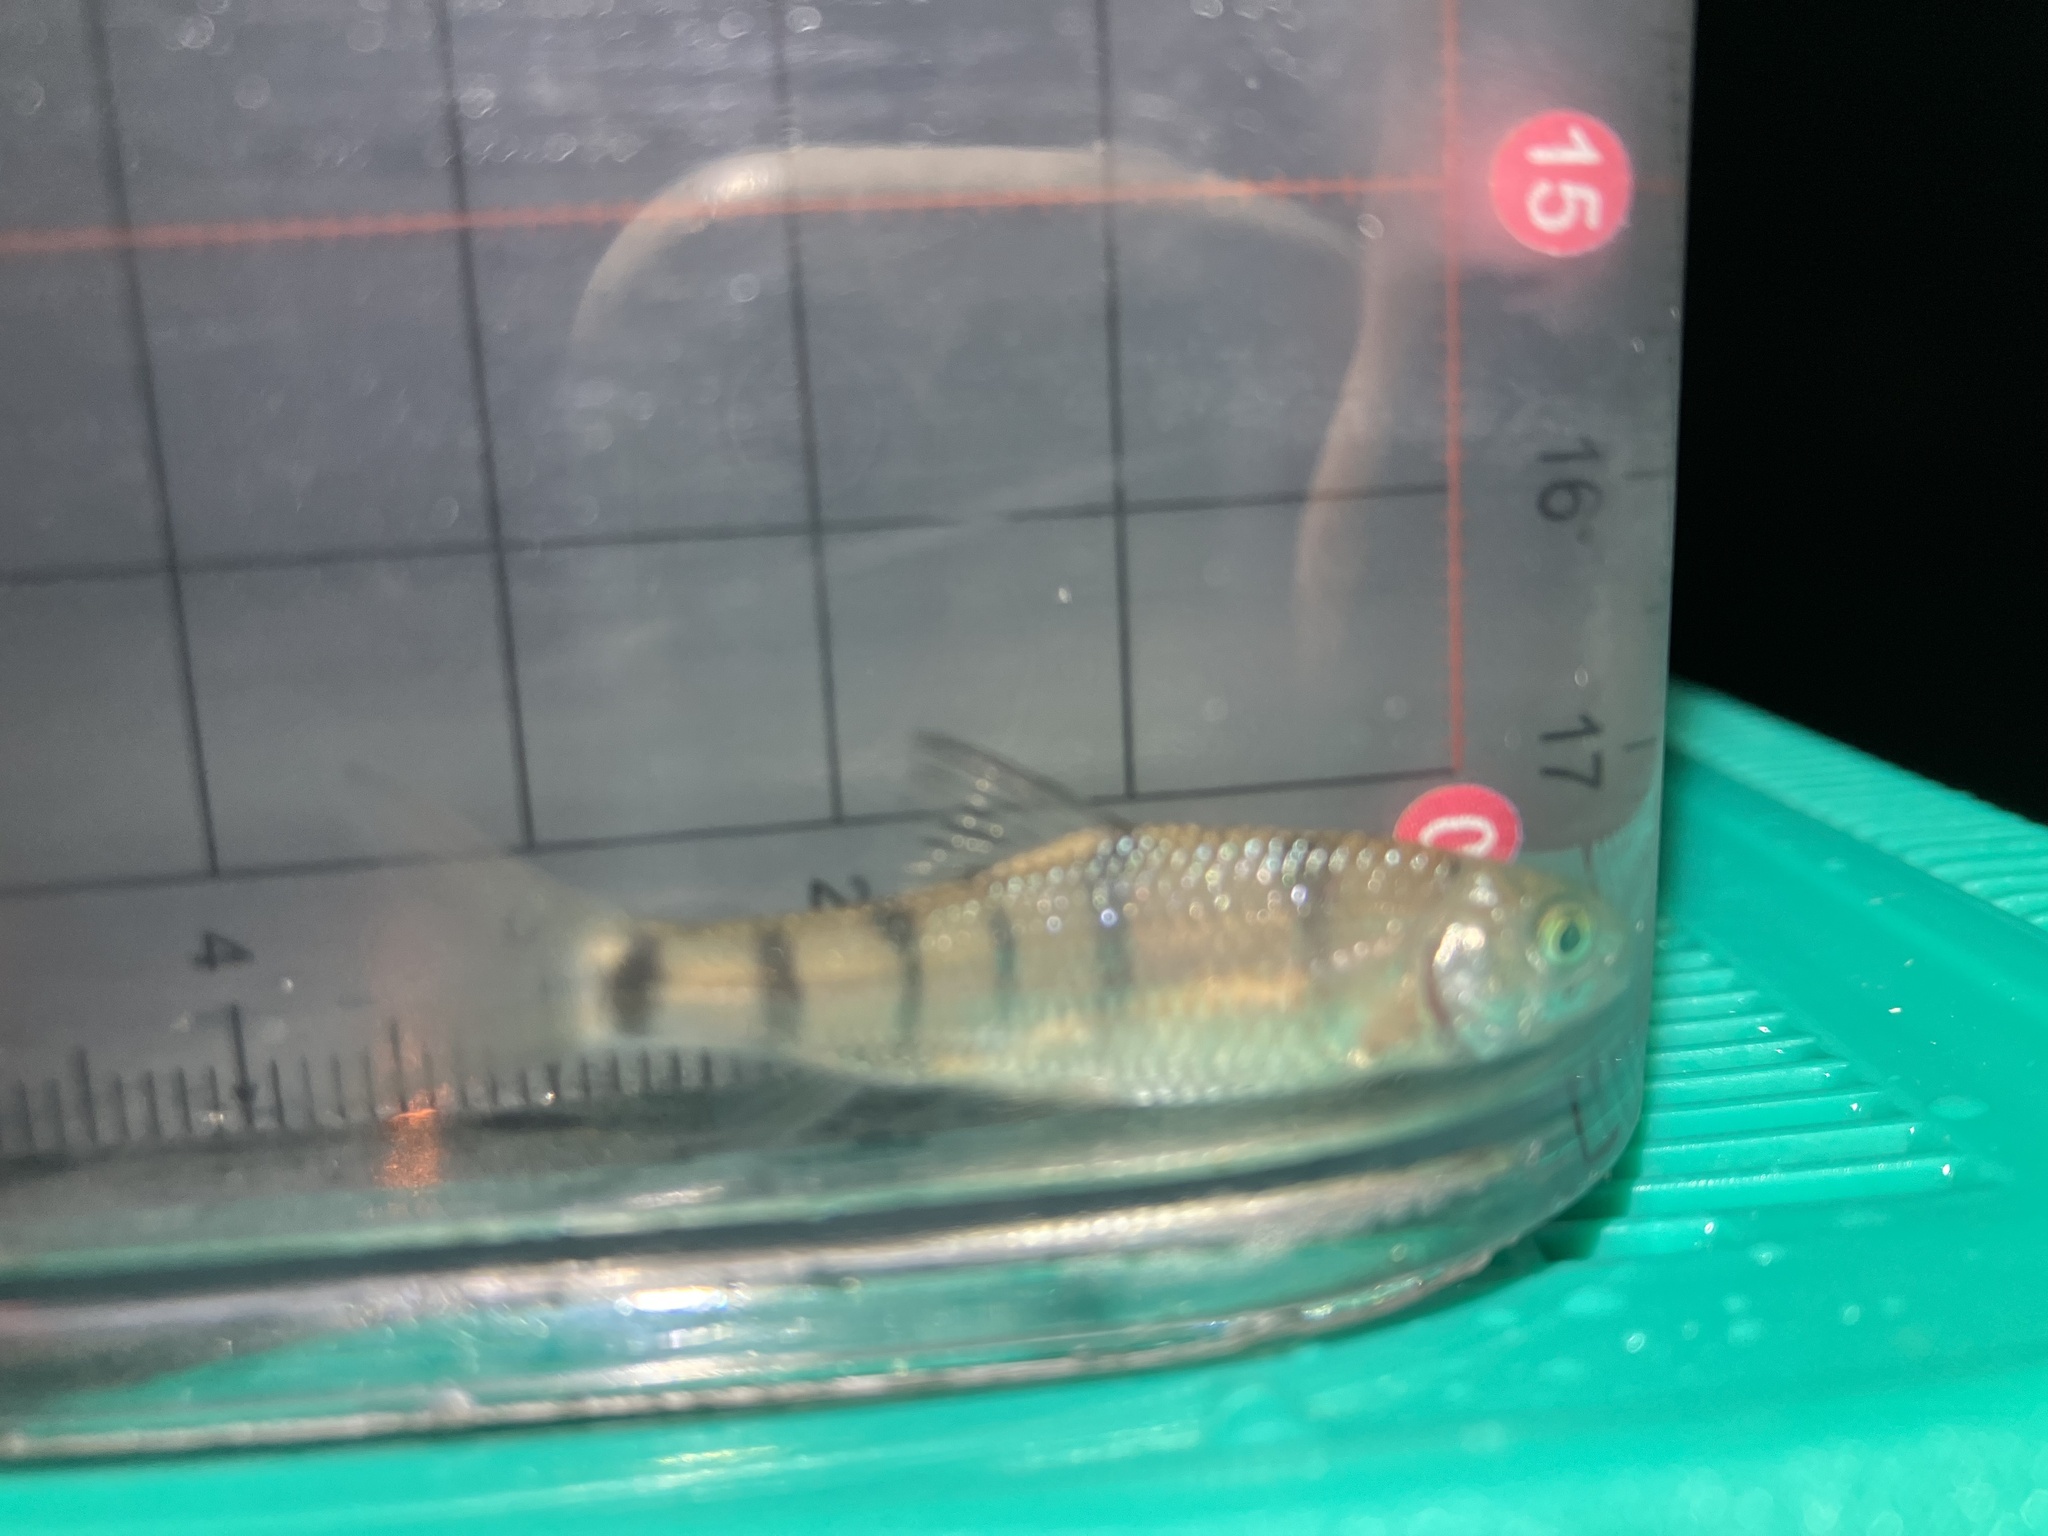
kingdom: Animalia
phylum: Chordata
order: Cypriniformes
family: Cyprinidae
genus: Acrossocheilus
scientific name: Acrossocheilus paradoxus
